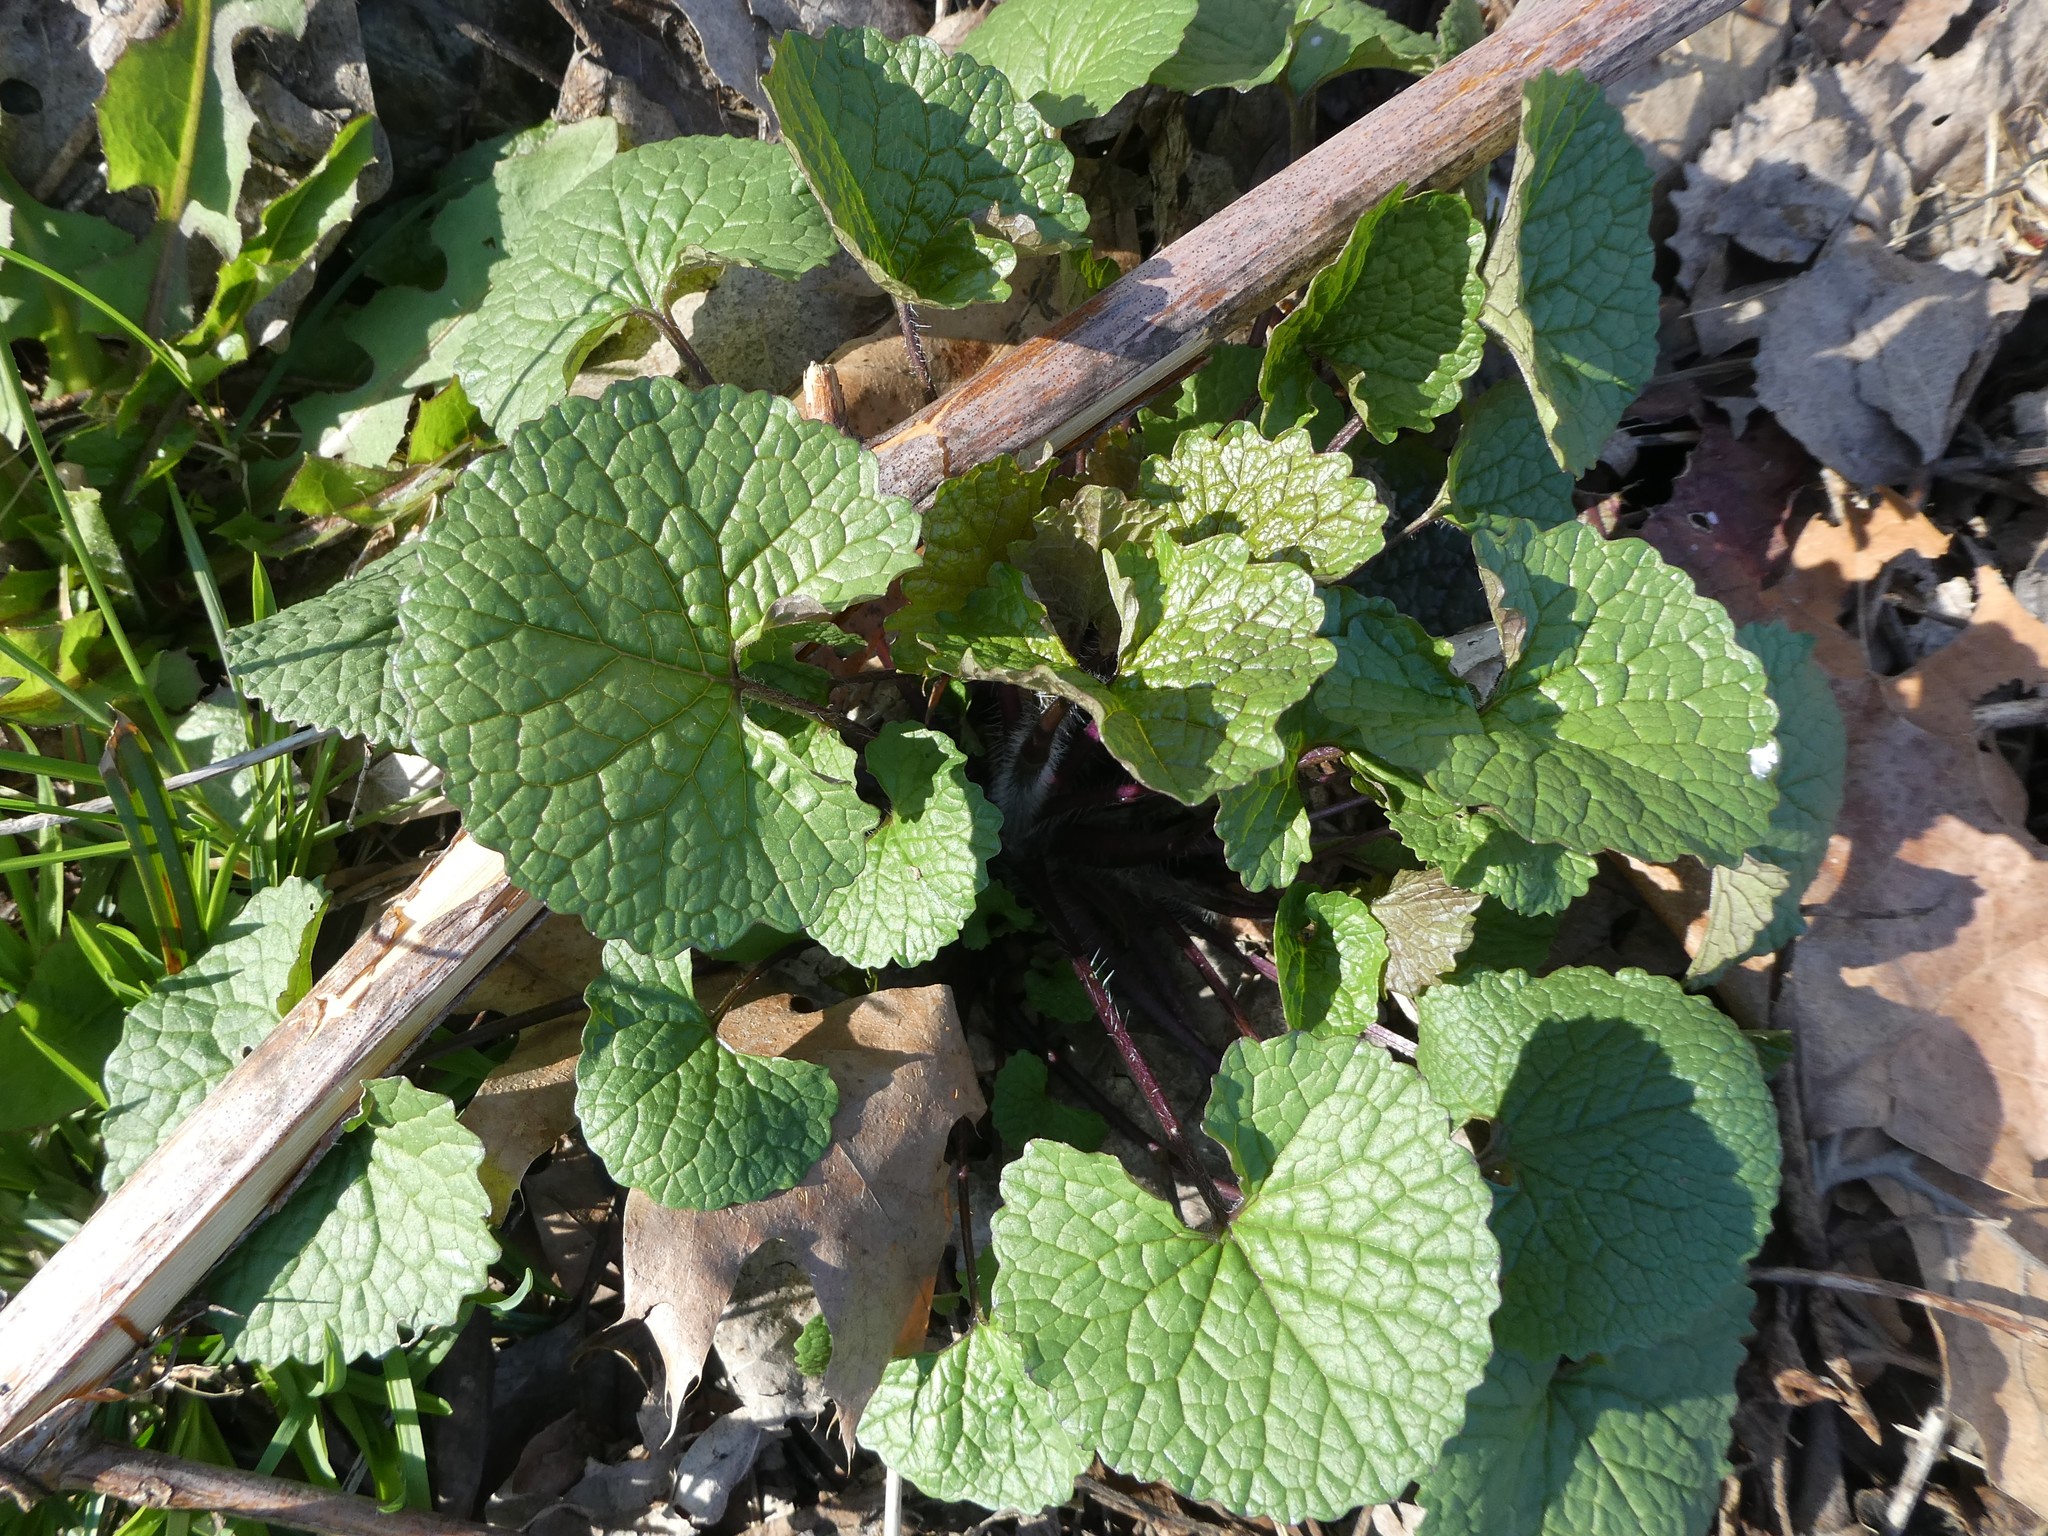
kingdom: Plantae
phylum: Tracheophyta
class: Magnoliopsida
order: Brassicales
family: Brassicaceae
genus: Alliaria
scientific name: Alliaria petiolata
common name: Garlic mustard
